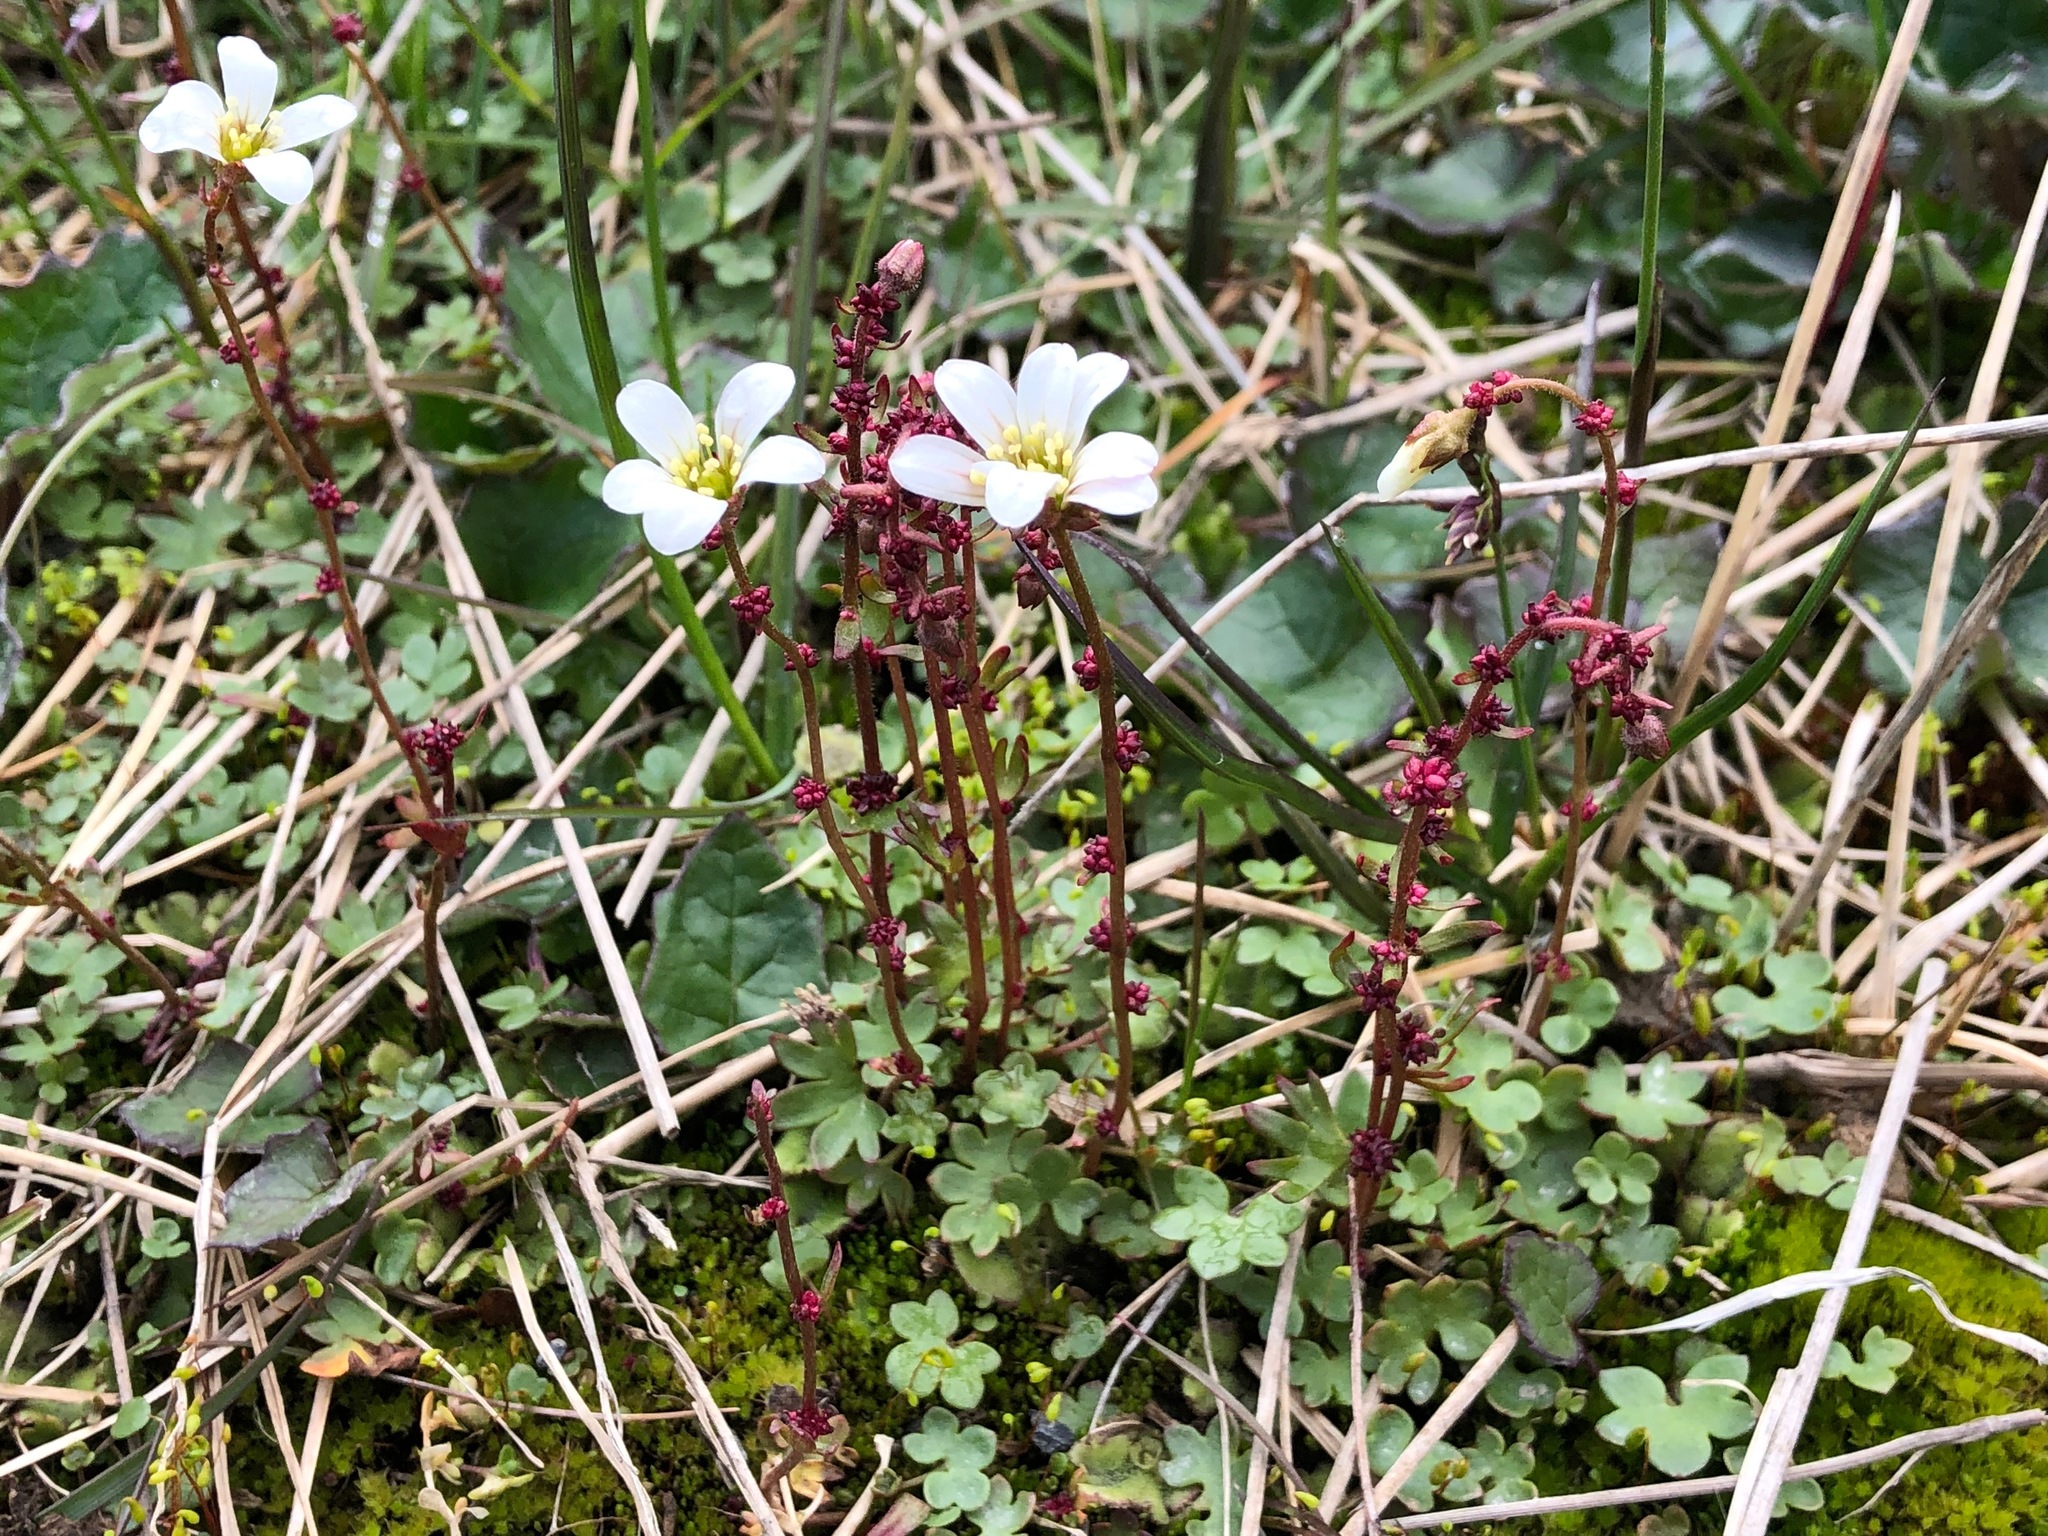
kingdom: Plantae
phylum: Tracheophyta
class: Magnoliopsida
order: Saxifragales
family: Saxifragaceae
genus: Saxifraga
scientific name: Saxifraga cernua
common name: Drooping saxifrage
